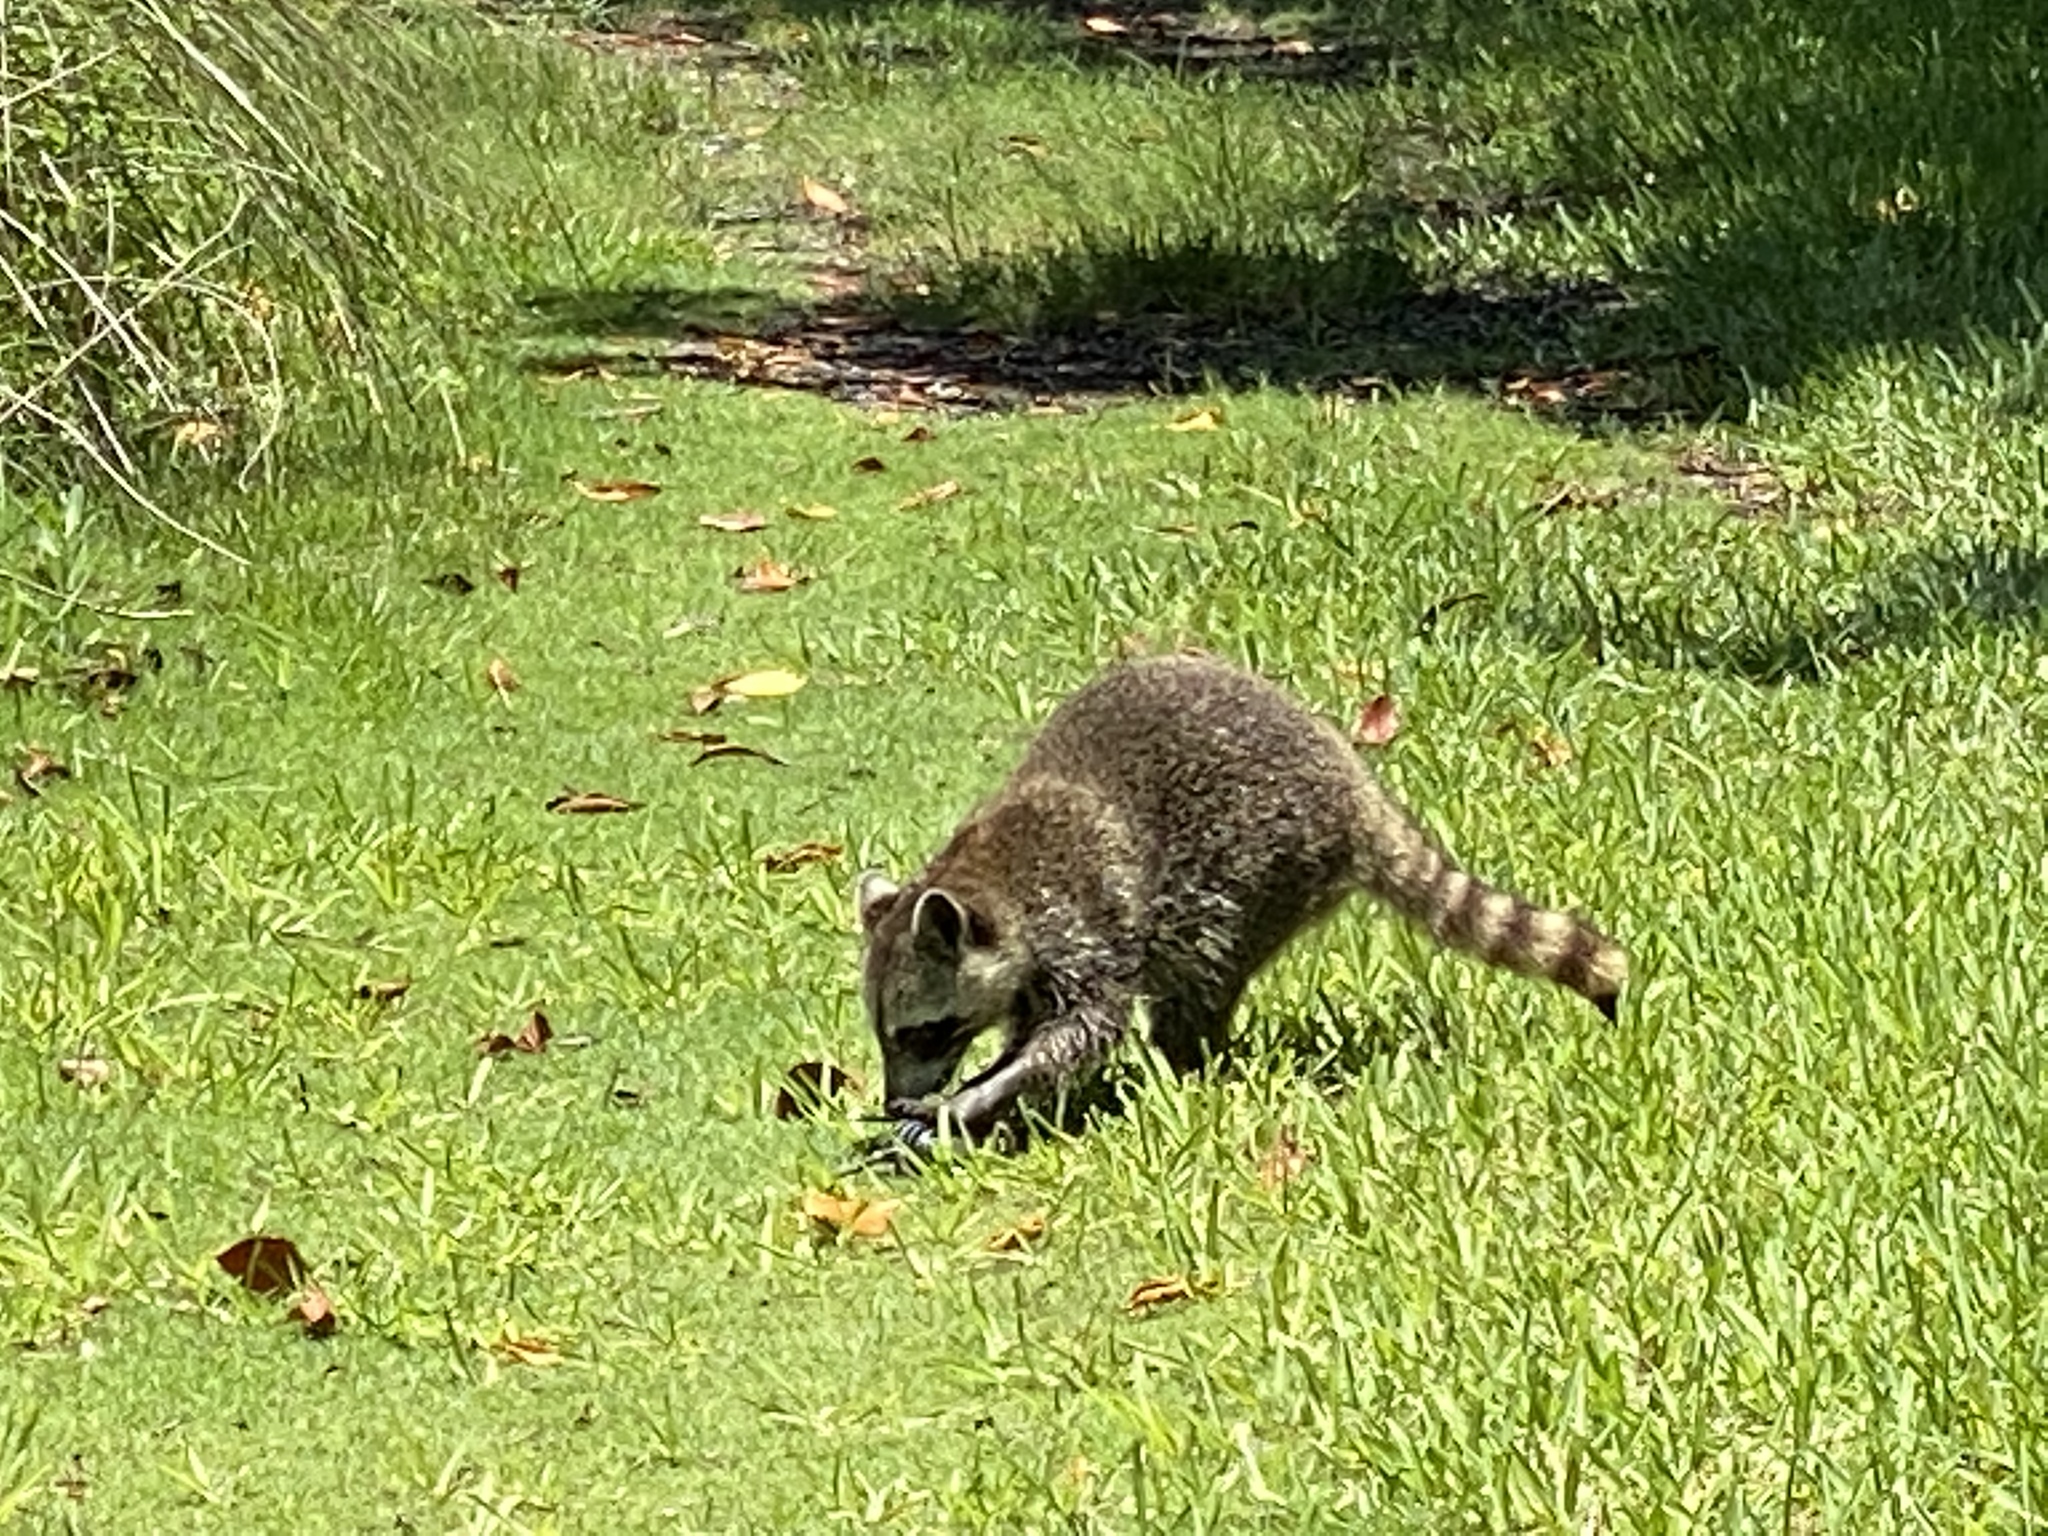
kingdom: Animalia
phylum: Chordata
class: Mammalia
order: Carnivora
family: Procyonidae
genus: Procyon
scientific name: Procyon lotor
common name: Raccoon
